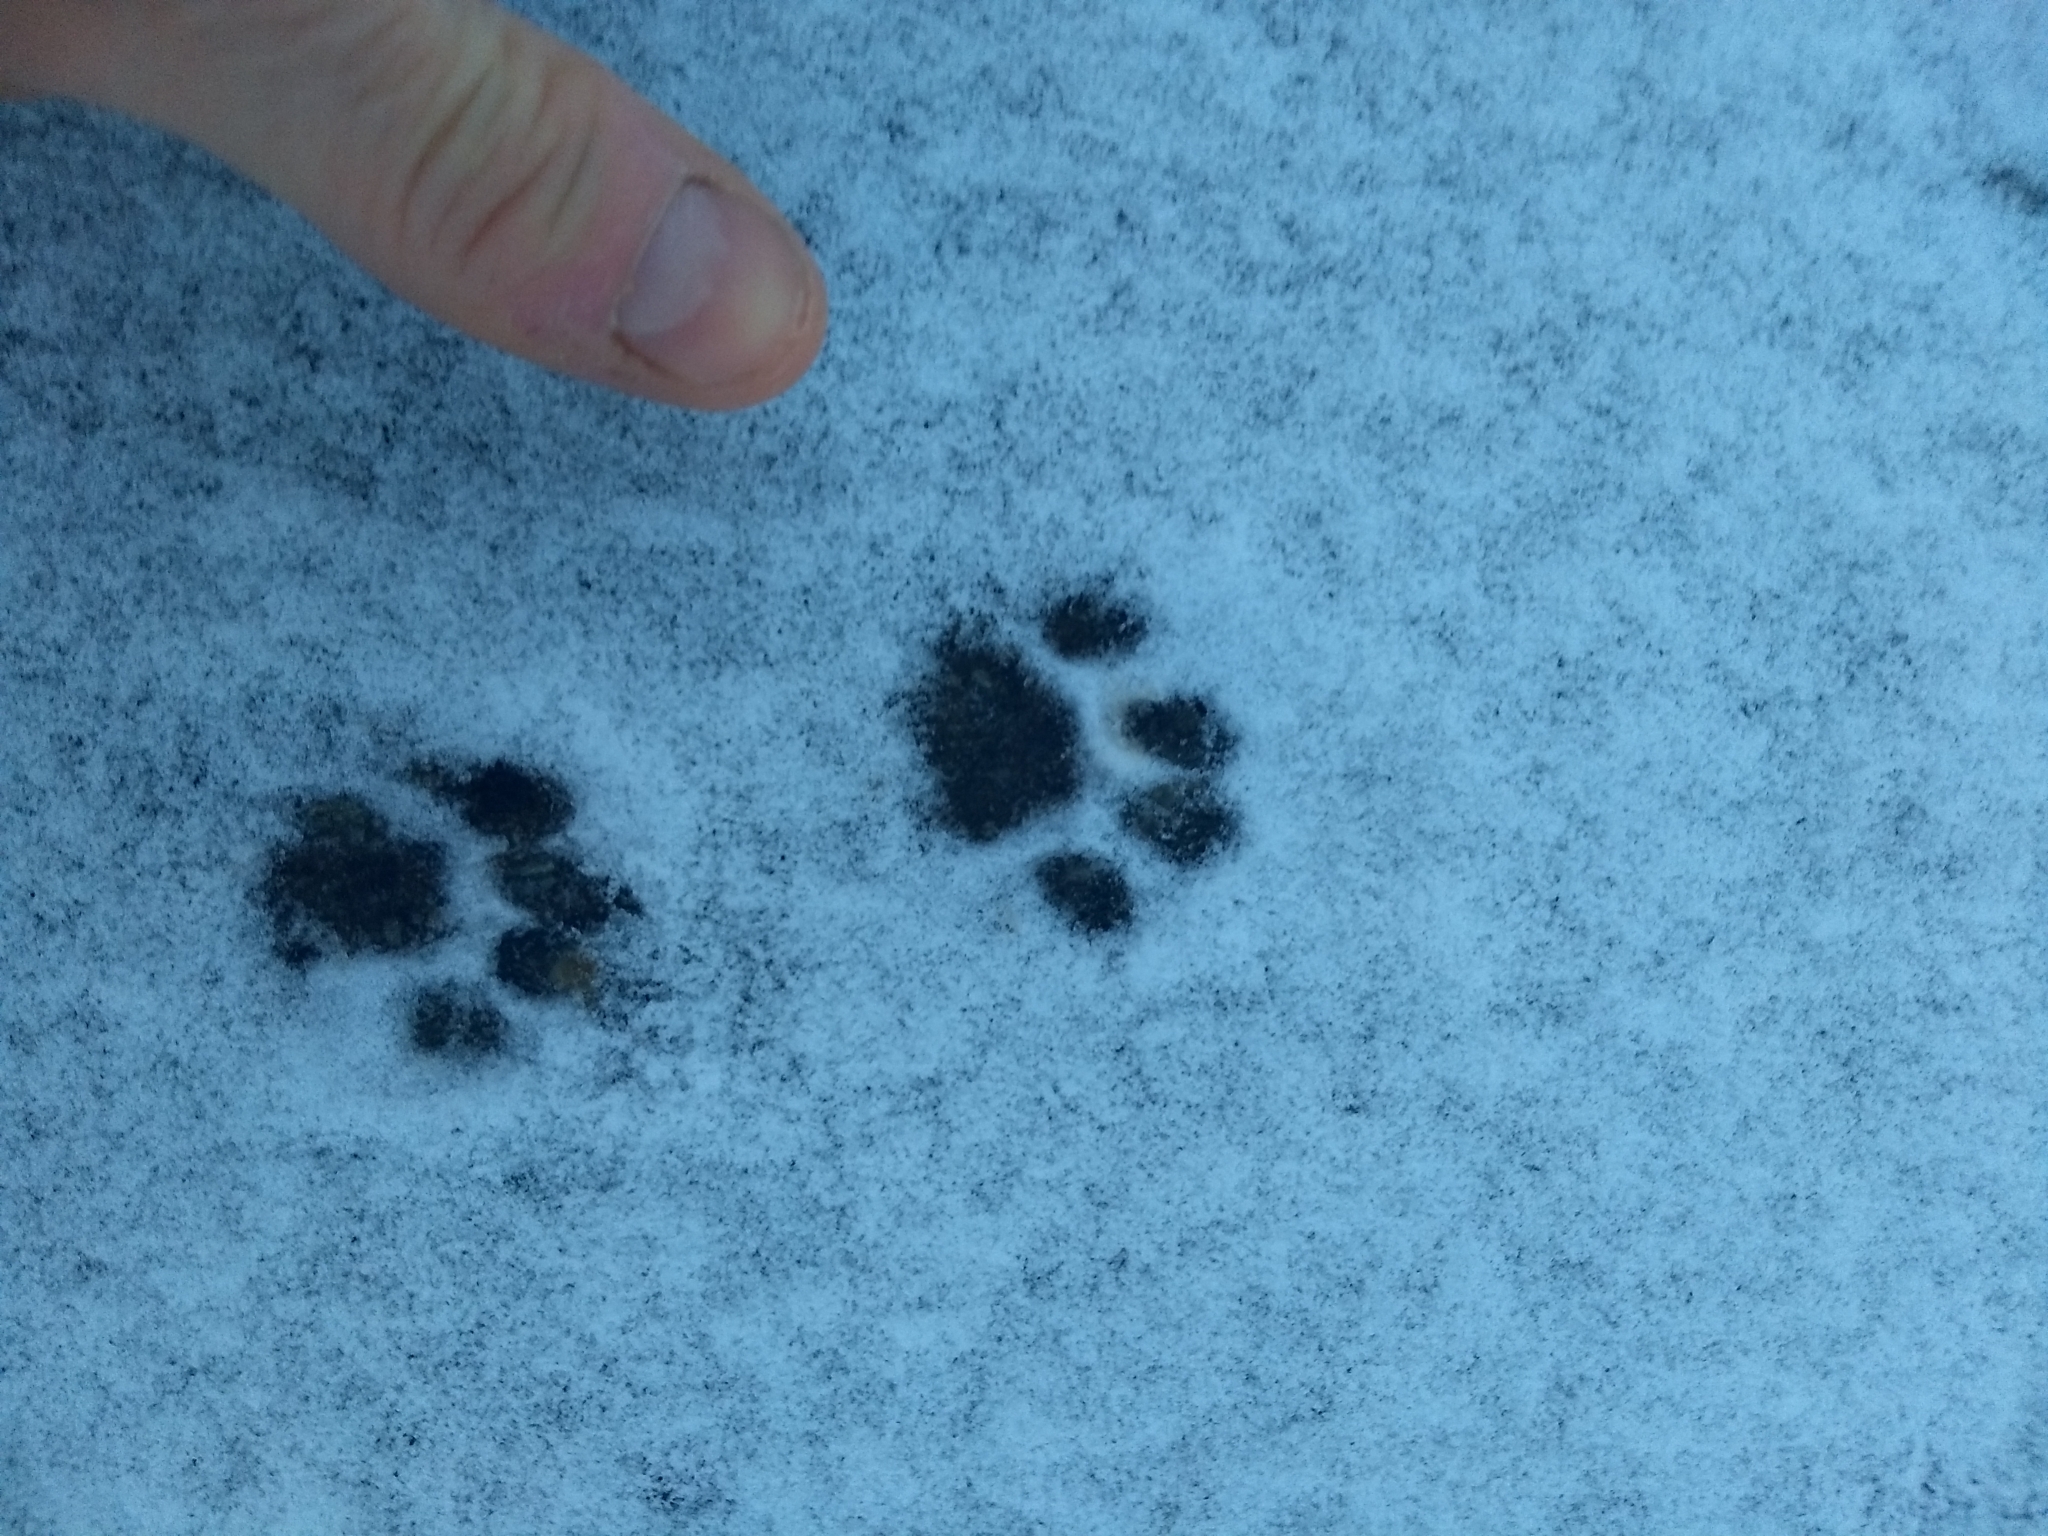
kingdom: Animalia
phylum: Chordata
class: Mammalia
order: Carnivora
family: Felidae
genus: Felis
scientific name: Felis catus
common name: Domestic cat
